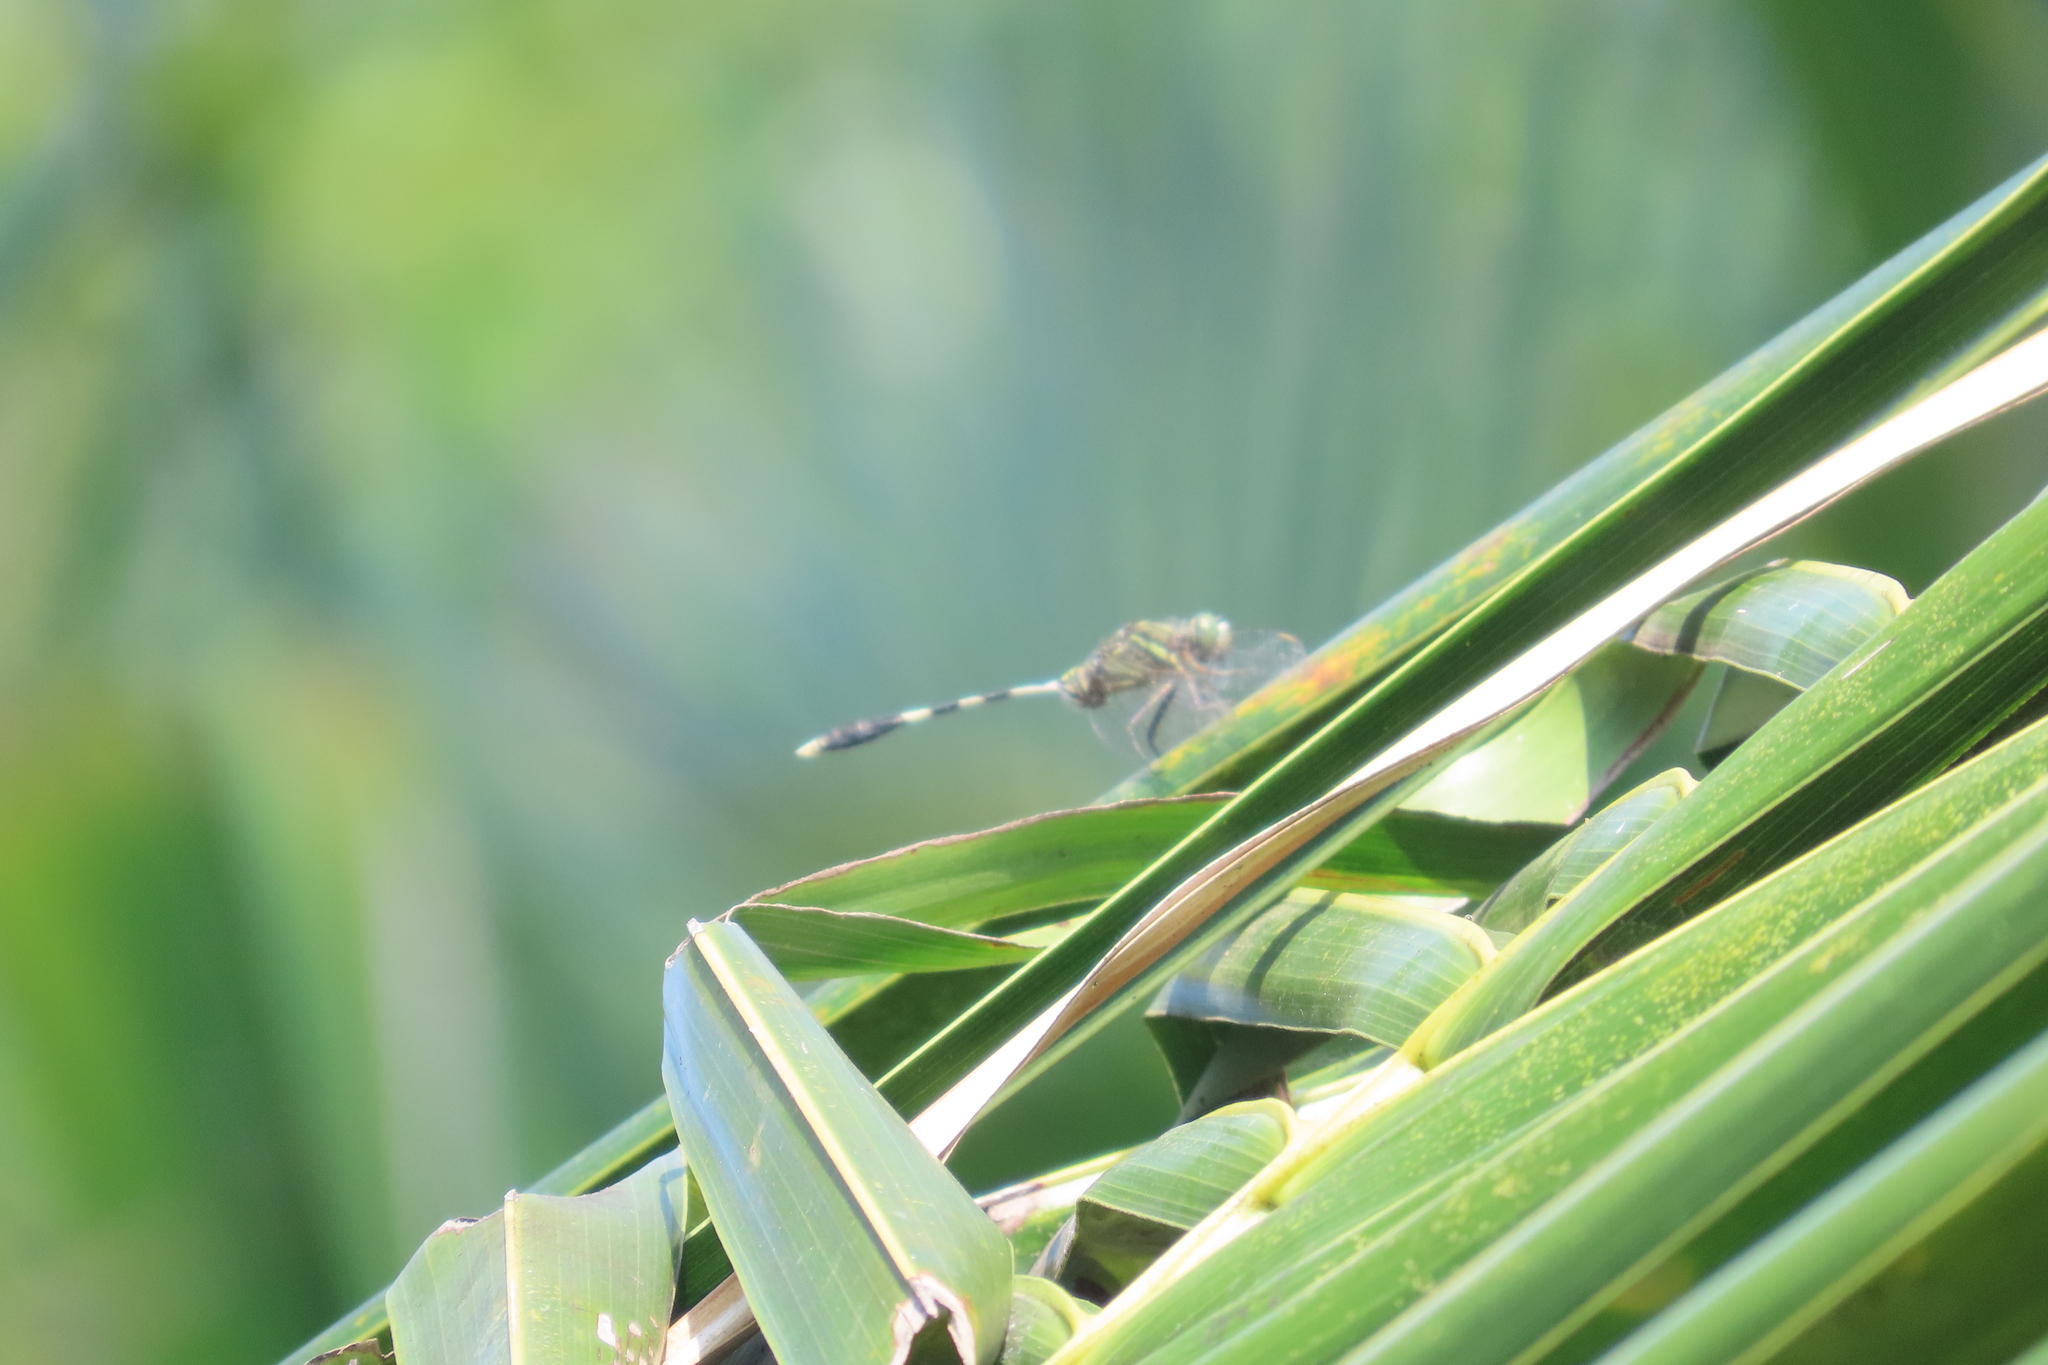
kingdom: Animalia
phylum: Arthropoda
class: Insecta
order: Odonata
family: Libellulidae
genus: Orthetrum
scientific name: Orthetrum sabina
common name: Slender skimmer
